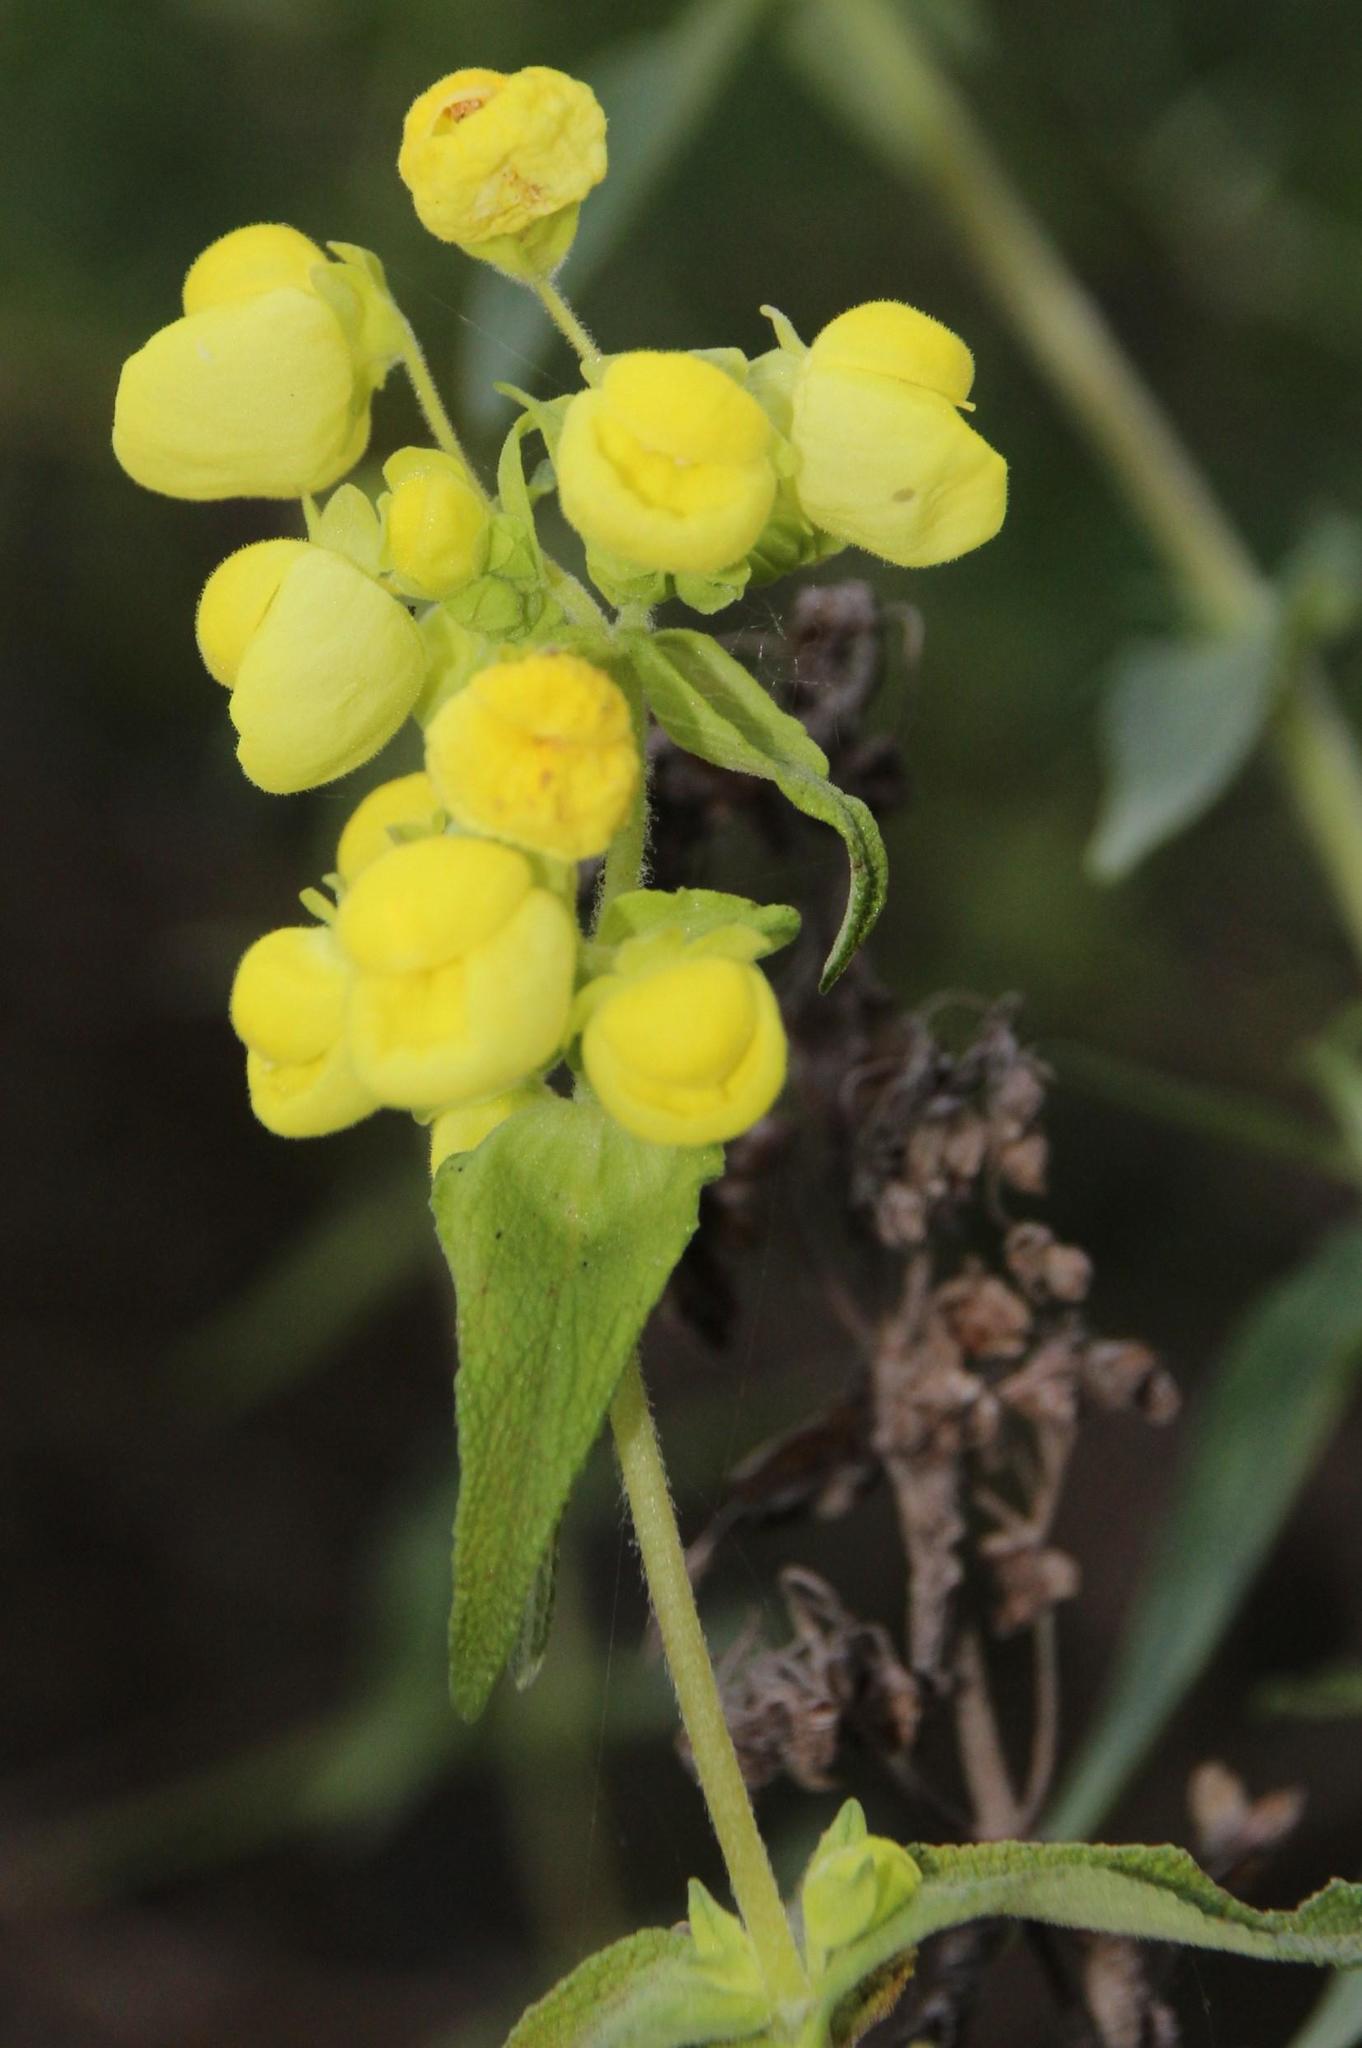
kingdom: Plantae
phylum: Tracheophyta
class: Magnoliopsida
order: Lamiales
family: Calceolariaceae
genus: Calceolaria
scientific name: Calceolaria morisii
